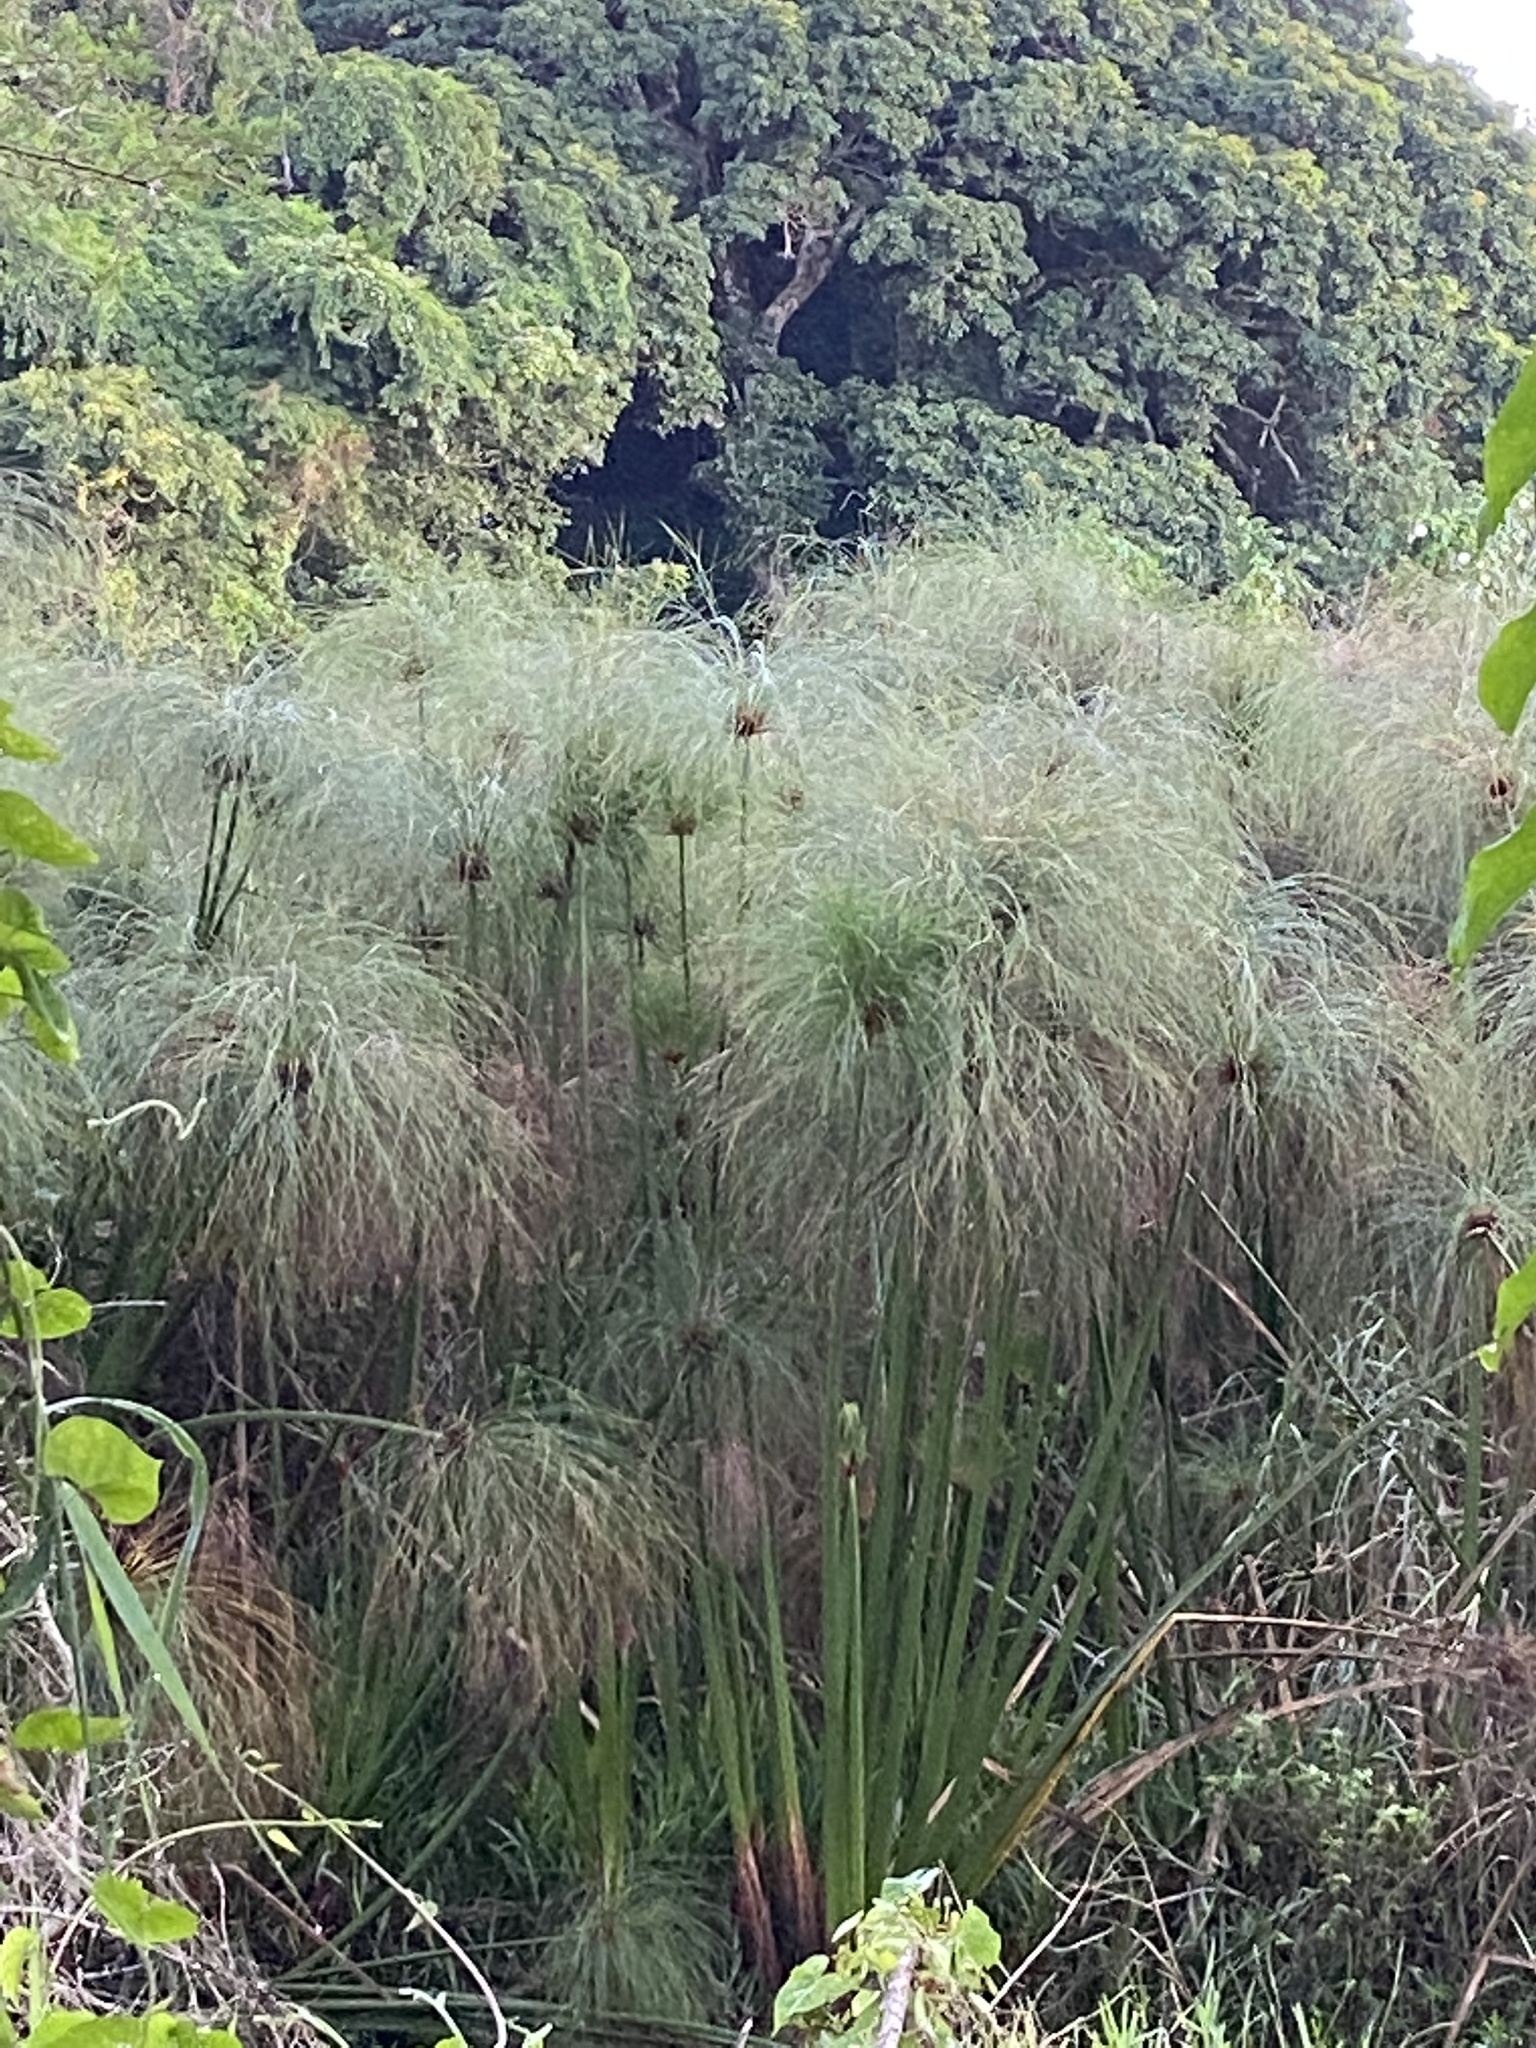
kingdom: Plantae
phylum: Tracheophyta
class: Liliopsida
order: Poales
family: Cyperaceae
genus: Cyperus
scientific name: Cyperus papyrus
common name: Papyrus
